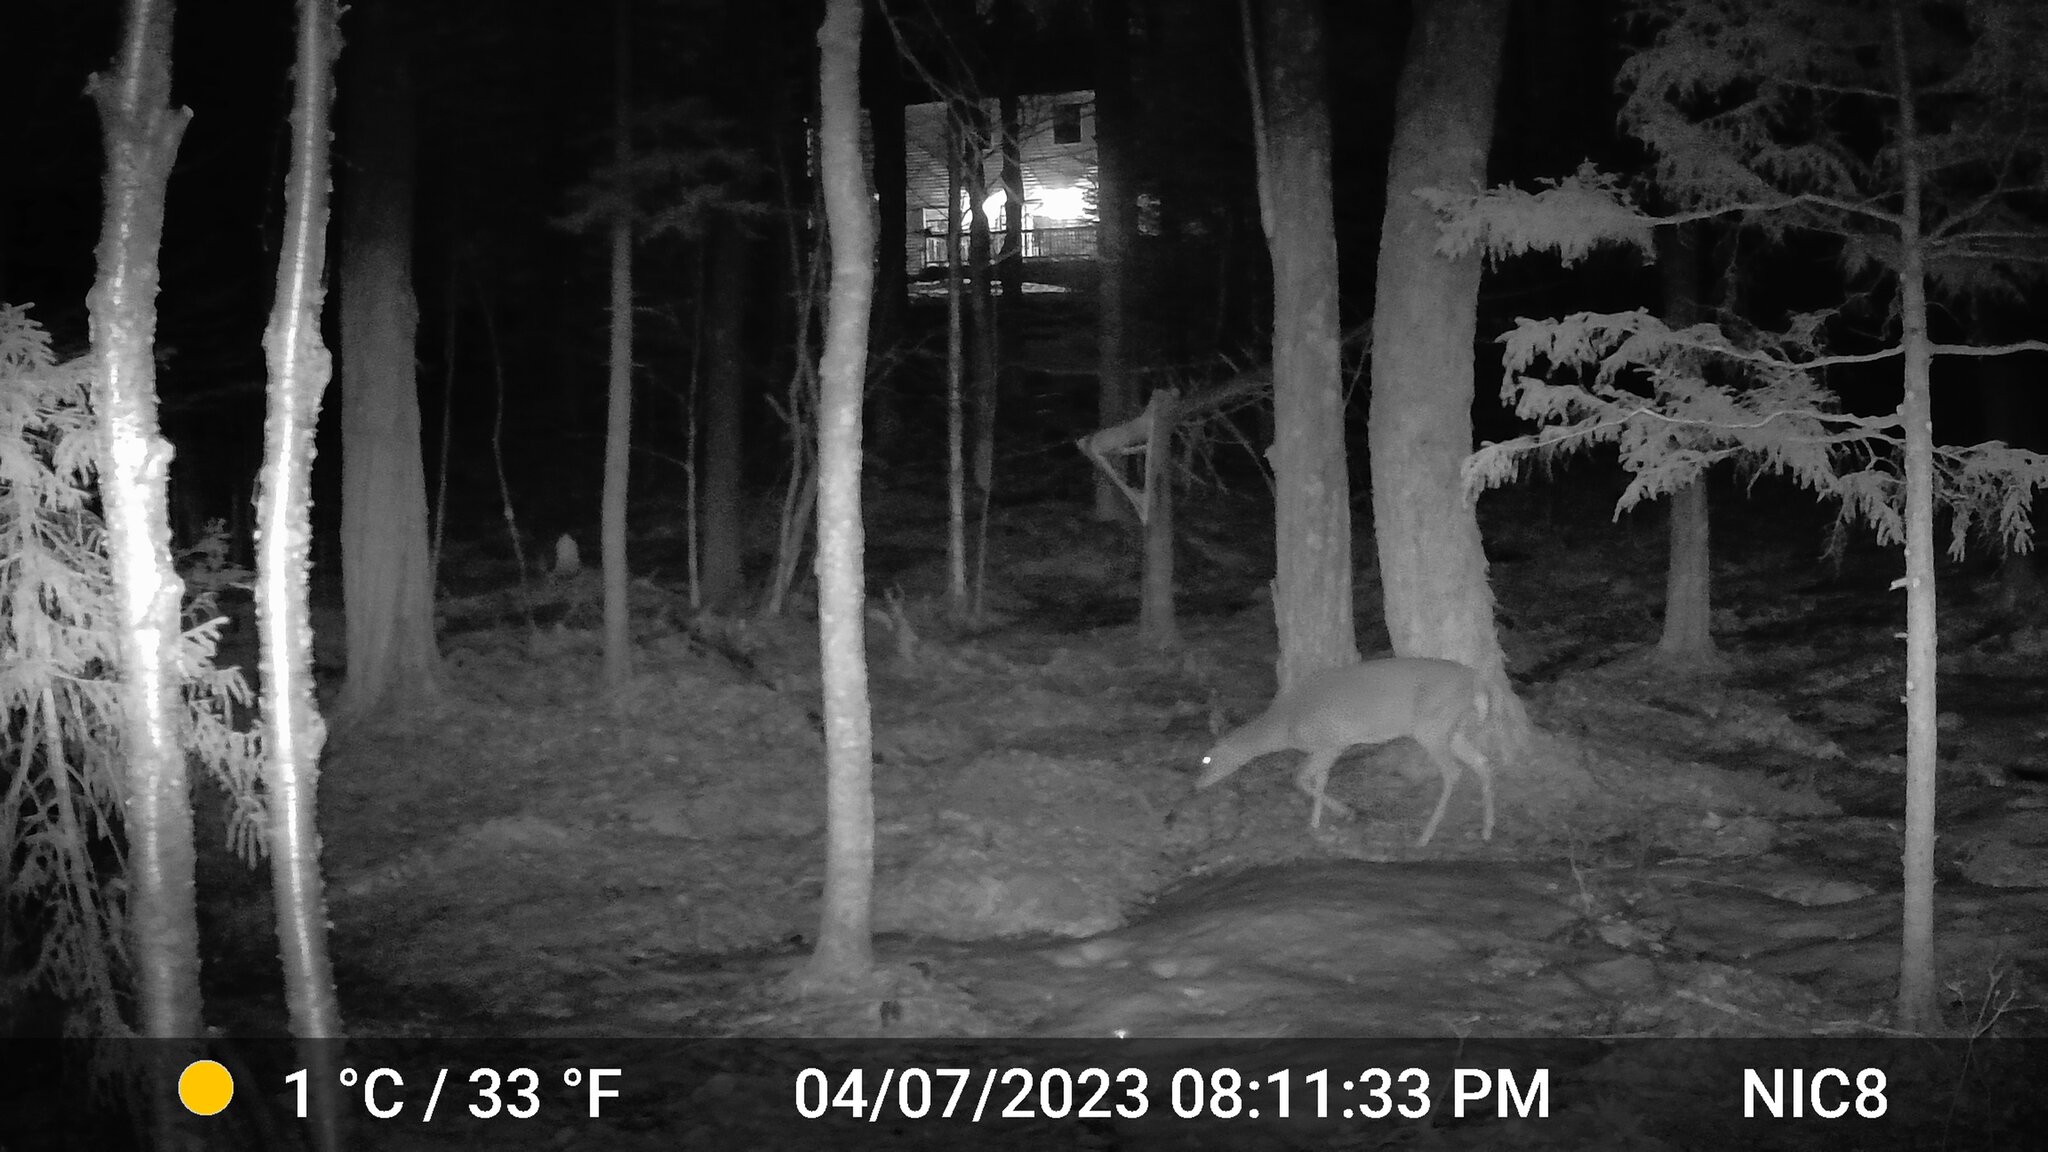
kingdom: Animalia
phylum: Chordata
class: Mammalia
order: Artiodactyla
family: Cervidae
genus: Odocoileus
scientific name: Odocoileus virginianus
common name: White-tailed deer
